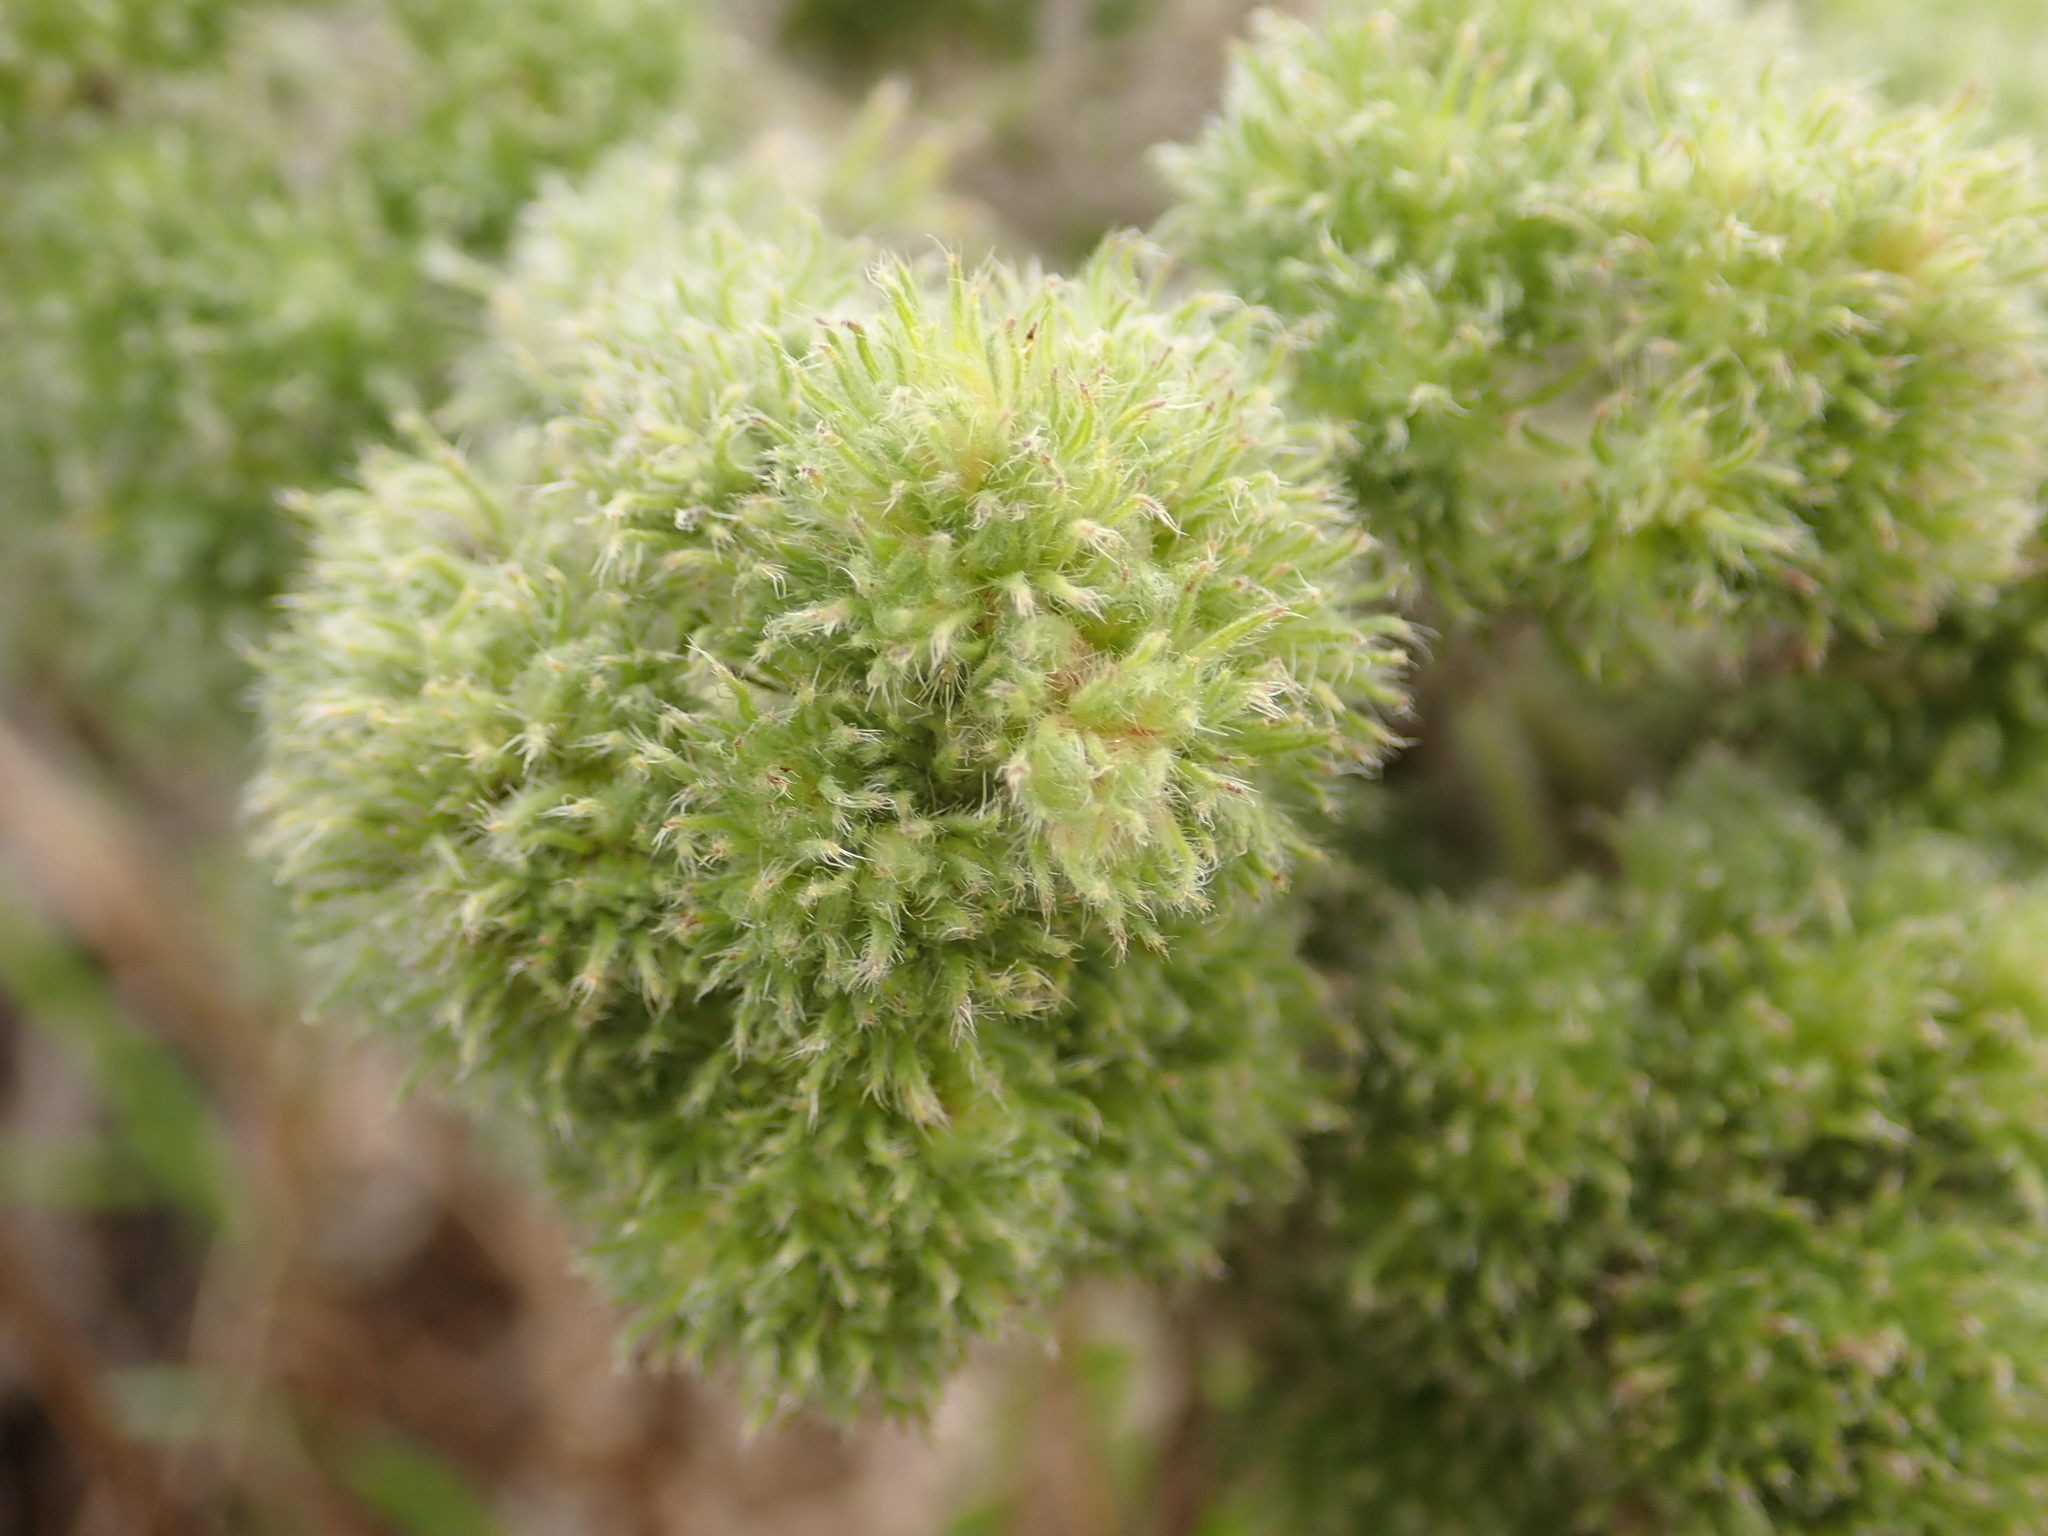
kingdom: Animalia
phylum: Arthropoda
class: Arachnida
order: Trombidiformes
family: Eriophyidae
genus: Aceria
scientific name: Aceria echii
